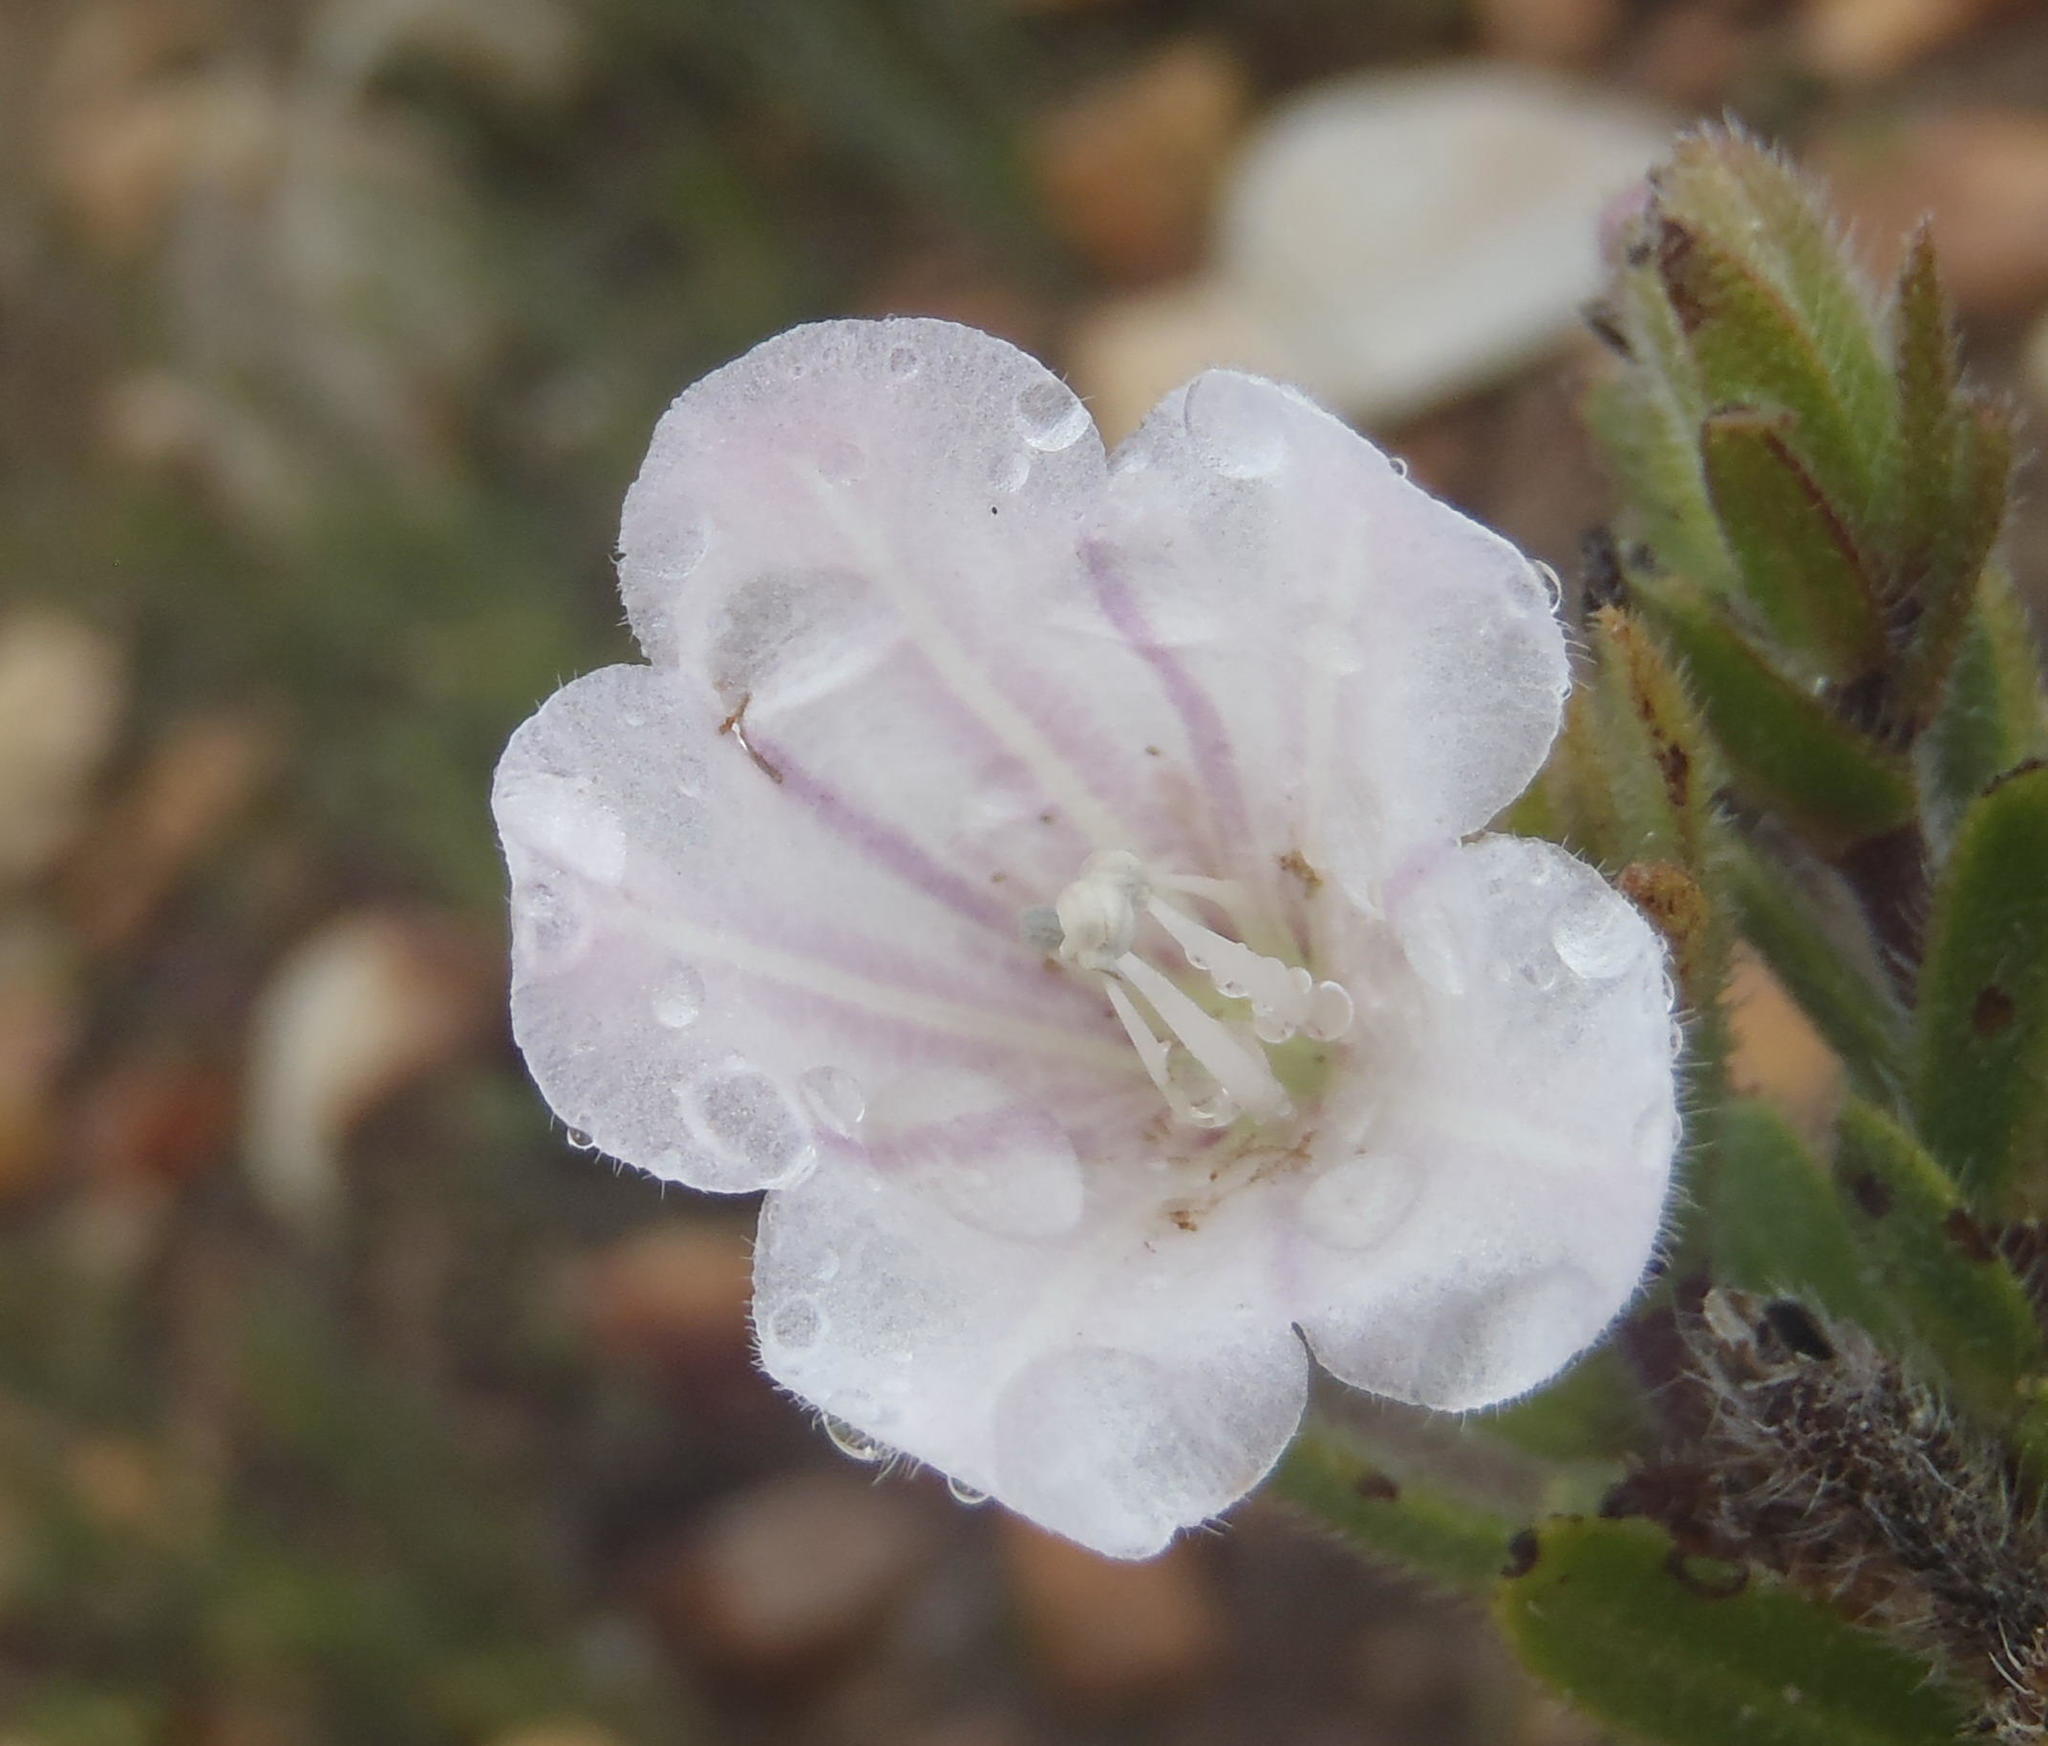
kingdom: Plantae
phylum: Tracheophyta
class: Magnoliopsida
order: Boraginales
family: Boraginaceae
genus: Lobostemon
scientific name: Lobostemon fruticosus
